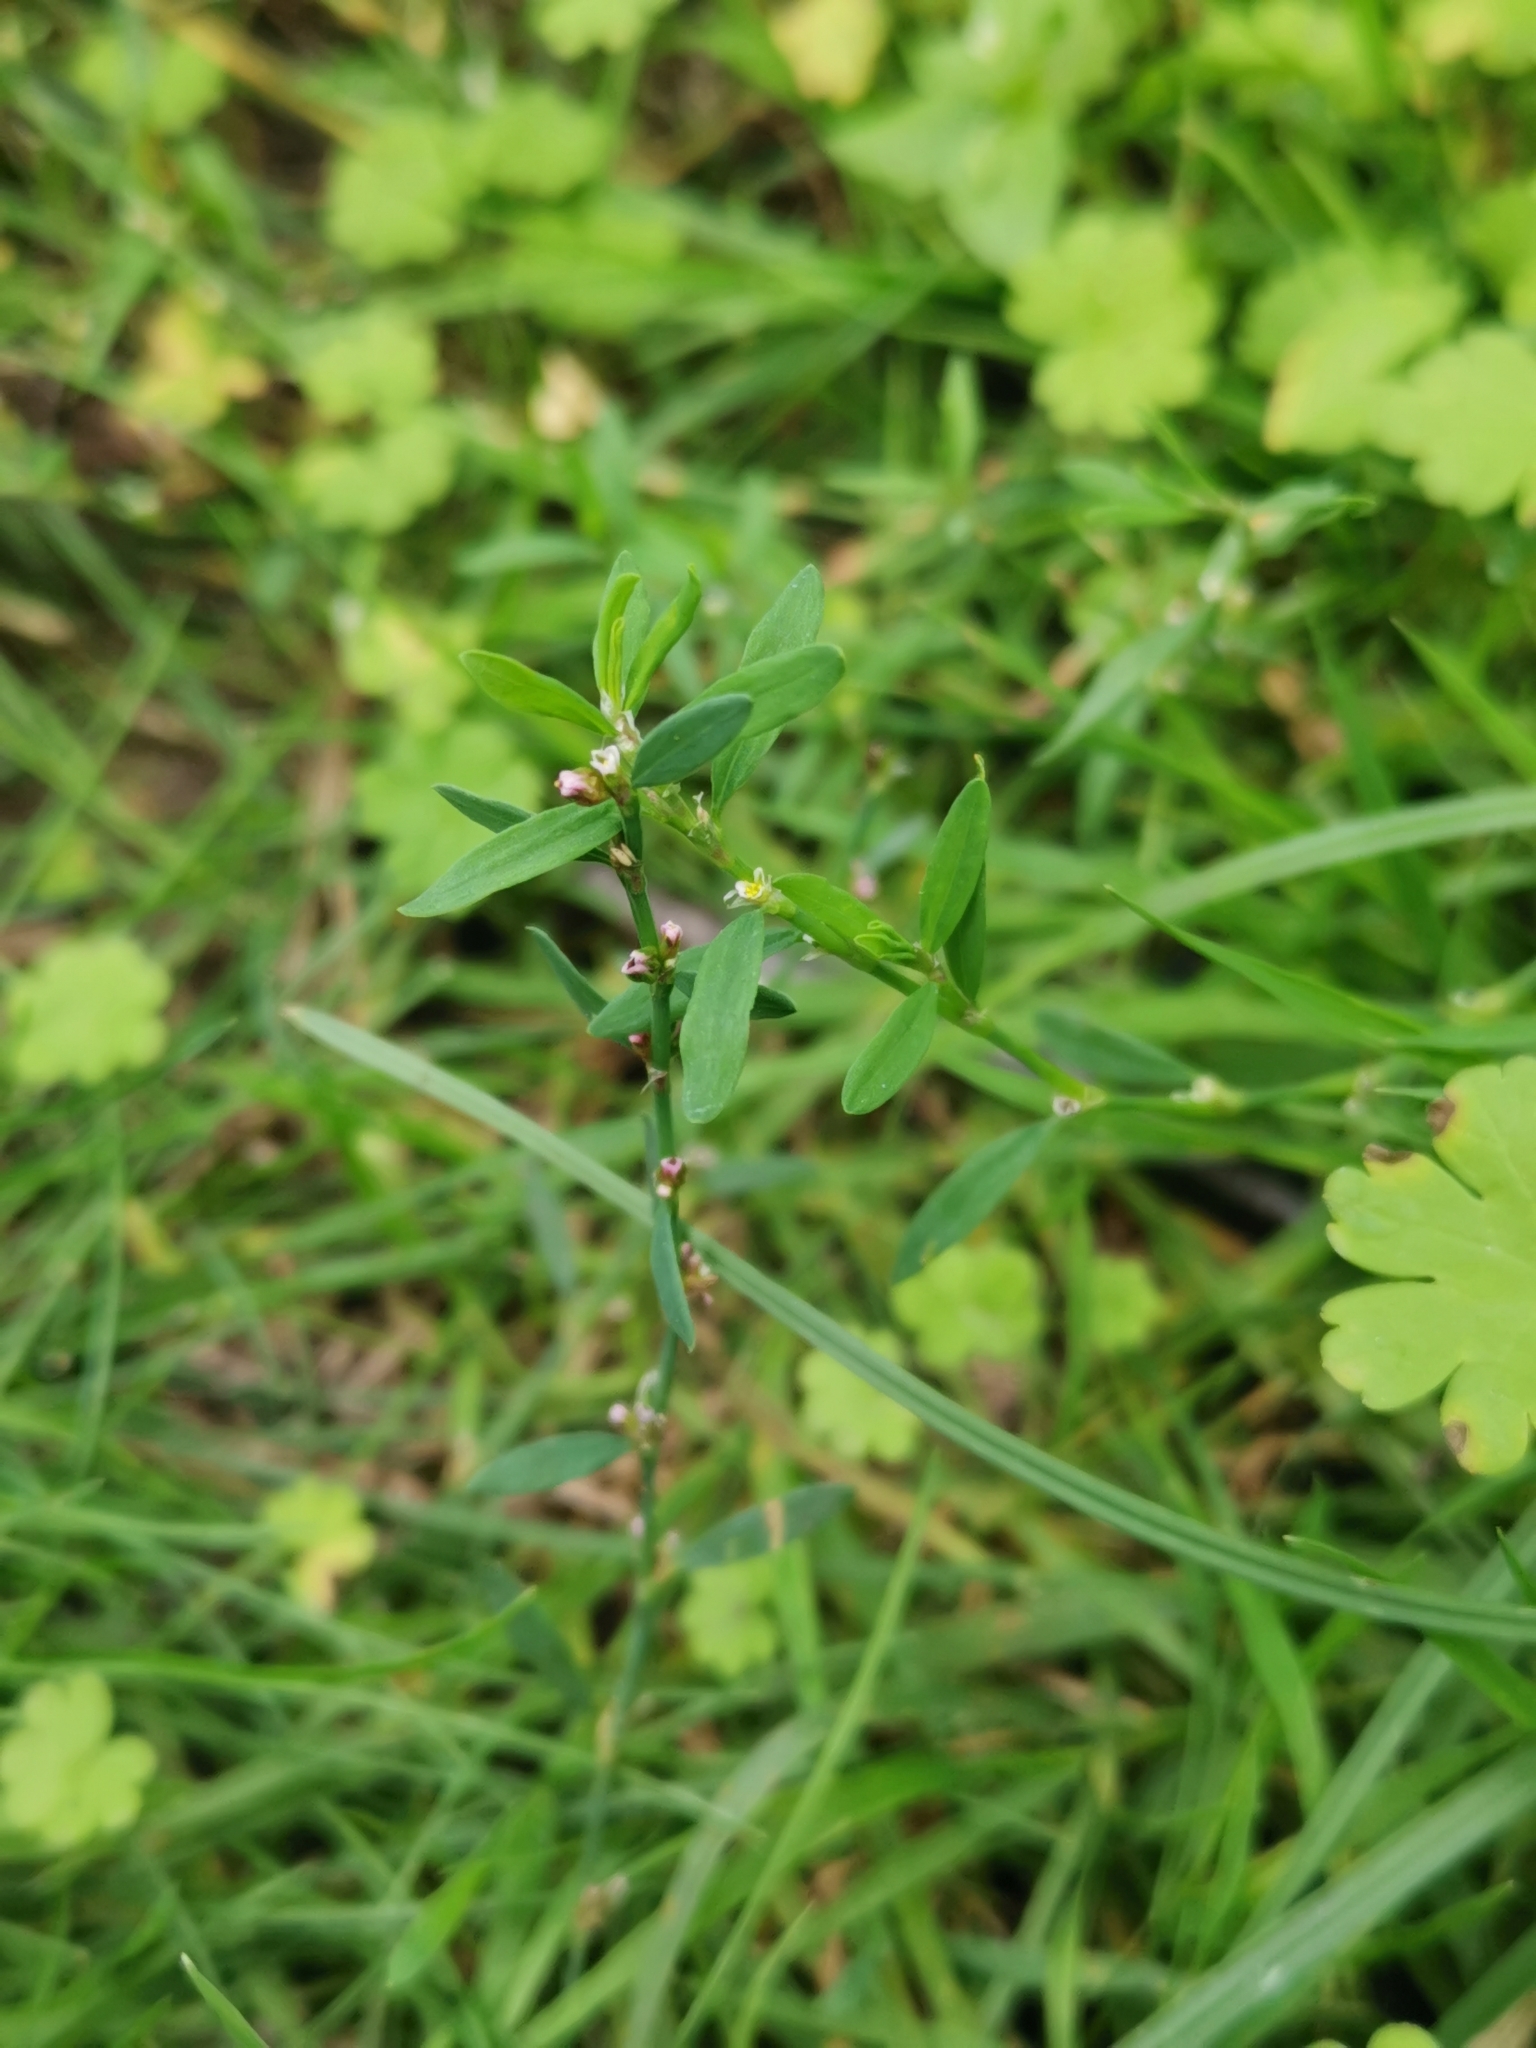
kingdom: Plantae
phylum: Tracheophyta
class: Magnoliopsida
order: Caryophyllales
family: Polygonaceae
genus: Polygonum
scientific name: Polygonum aviculare
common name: Prostrate knotweed
